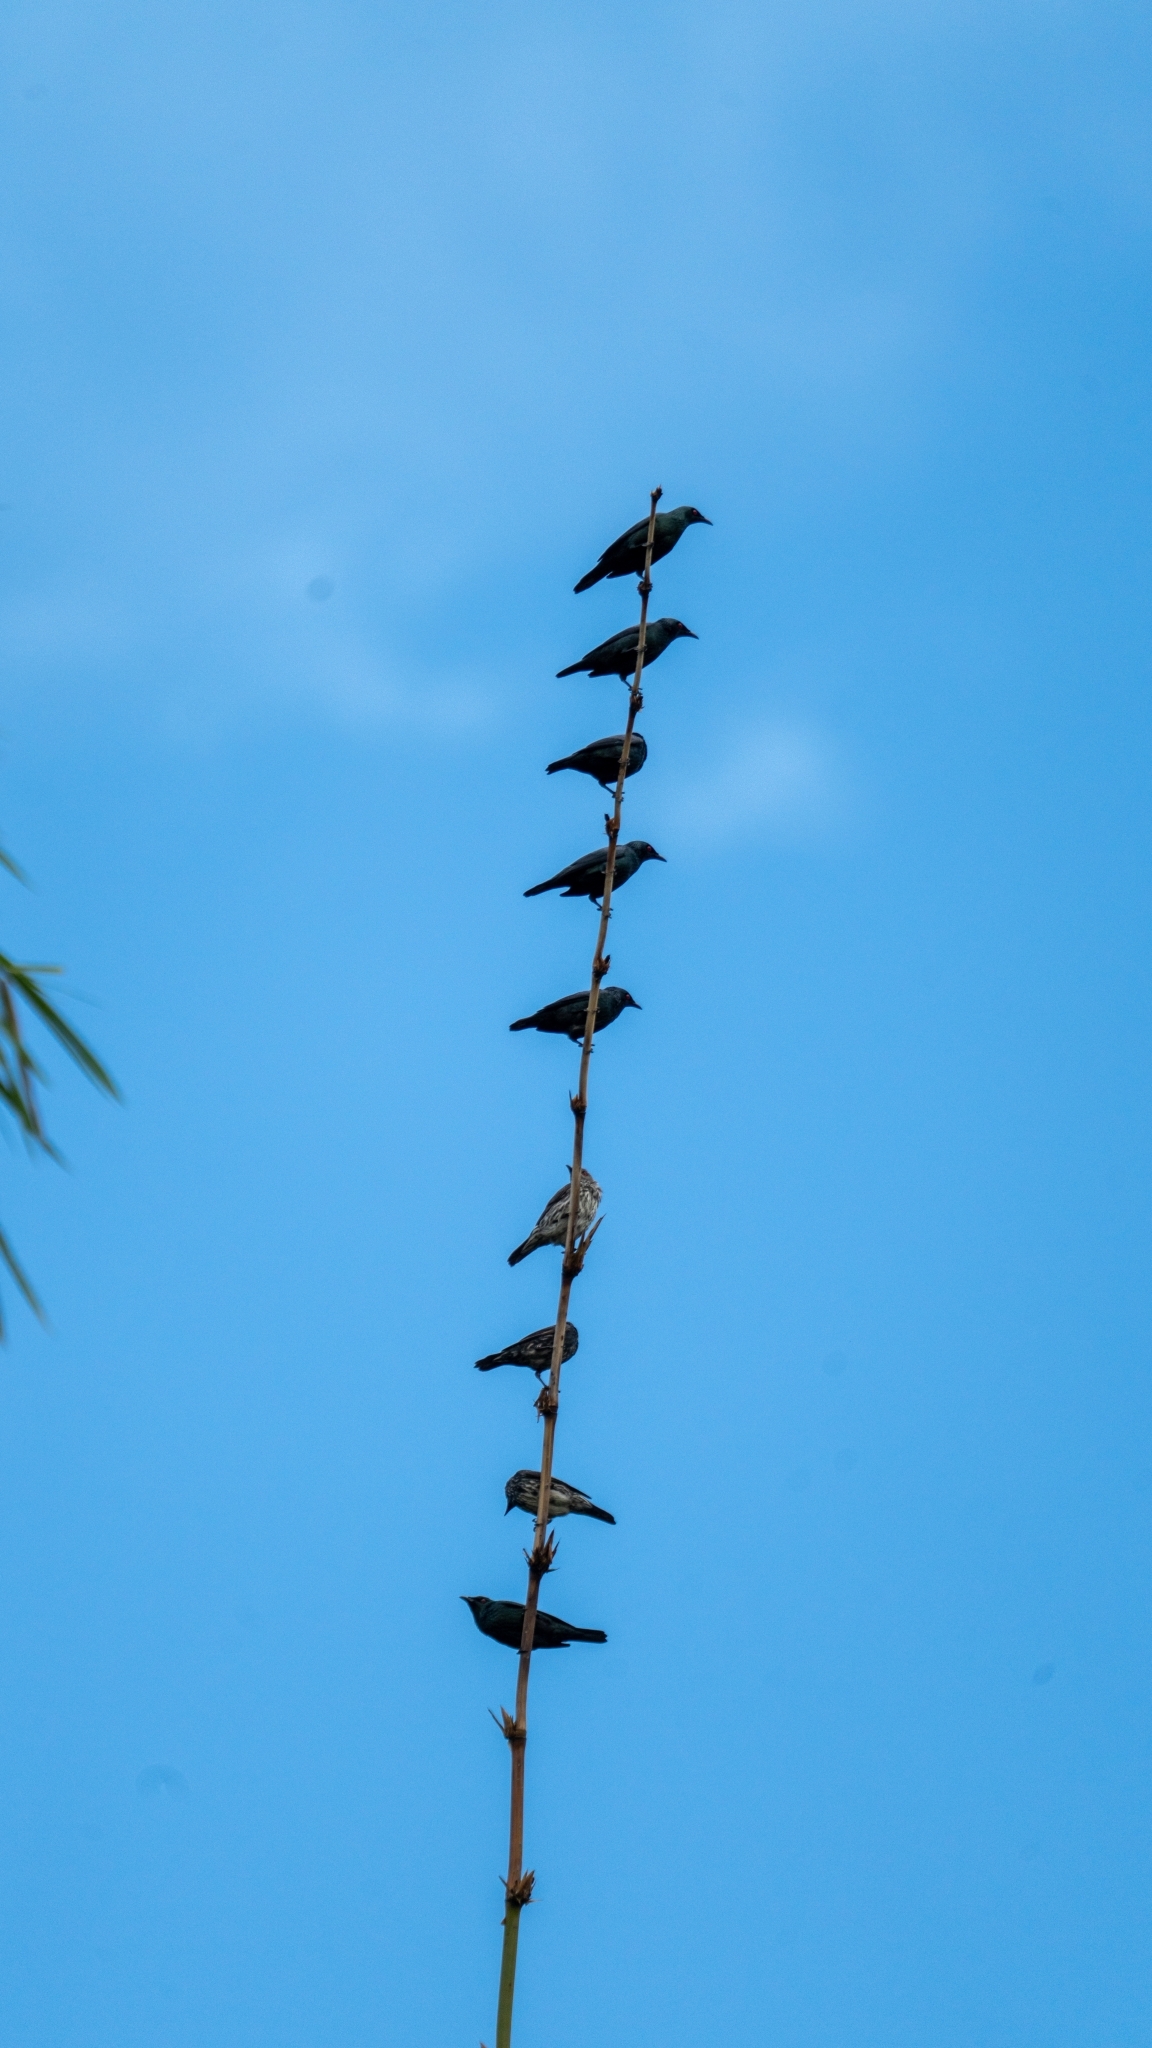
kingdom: Animalia
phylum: Chordata
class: Aves
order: Passeriformes
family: Sturnidae
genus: Aplonis
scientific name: Aplonis panayensis
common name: Asian glossy starling
